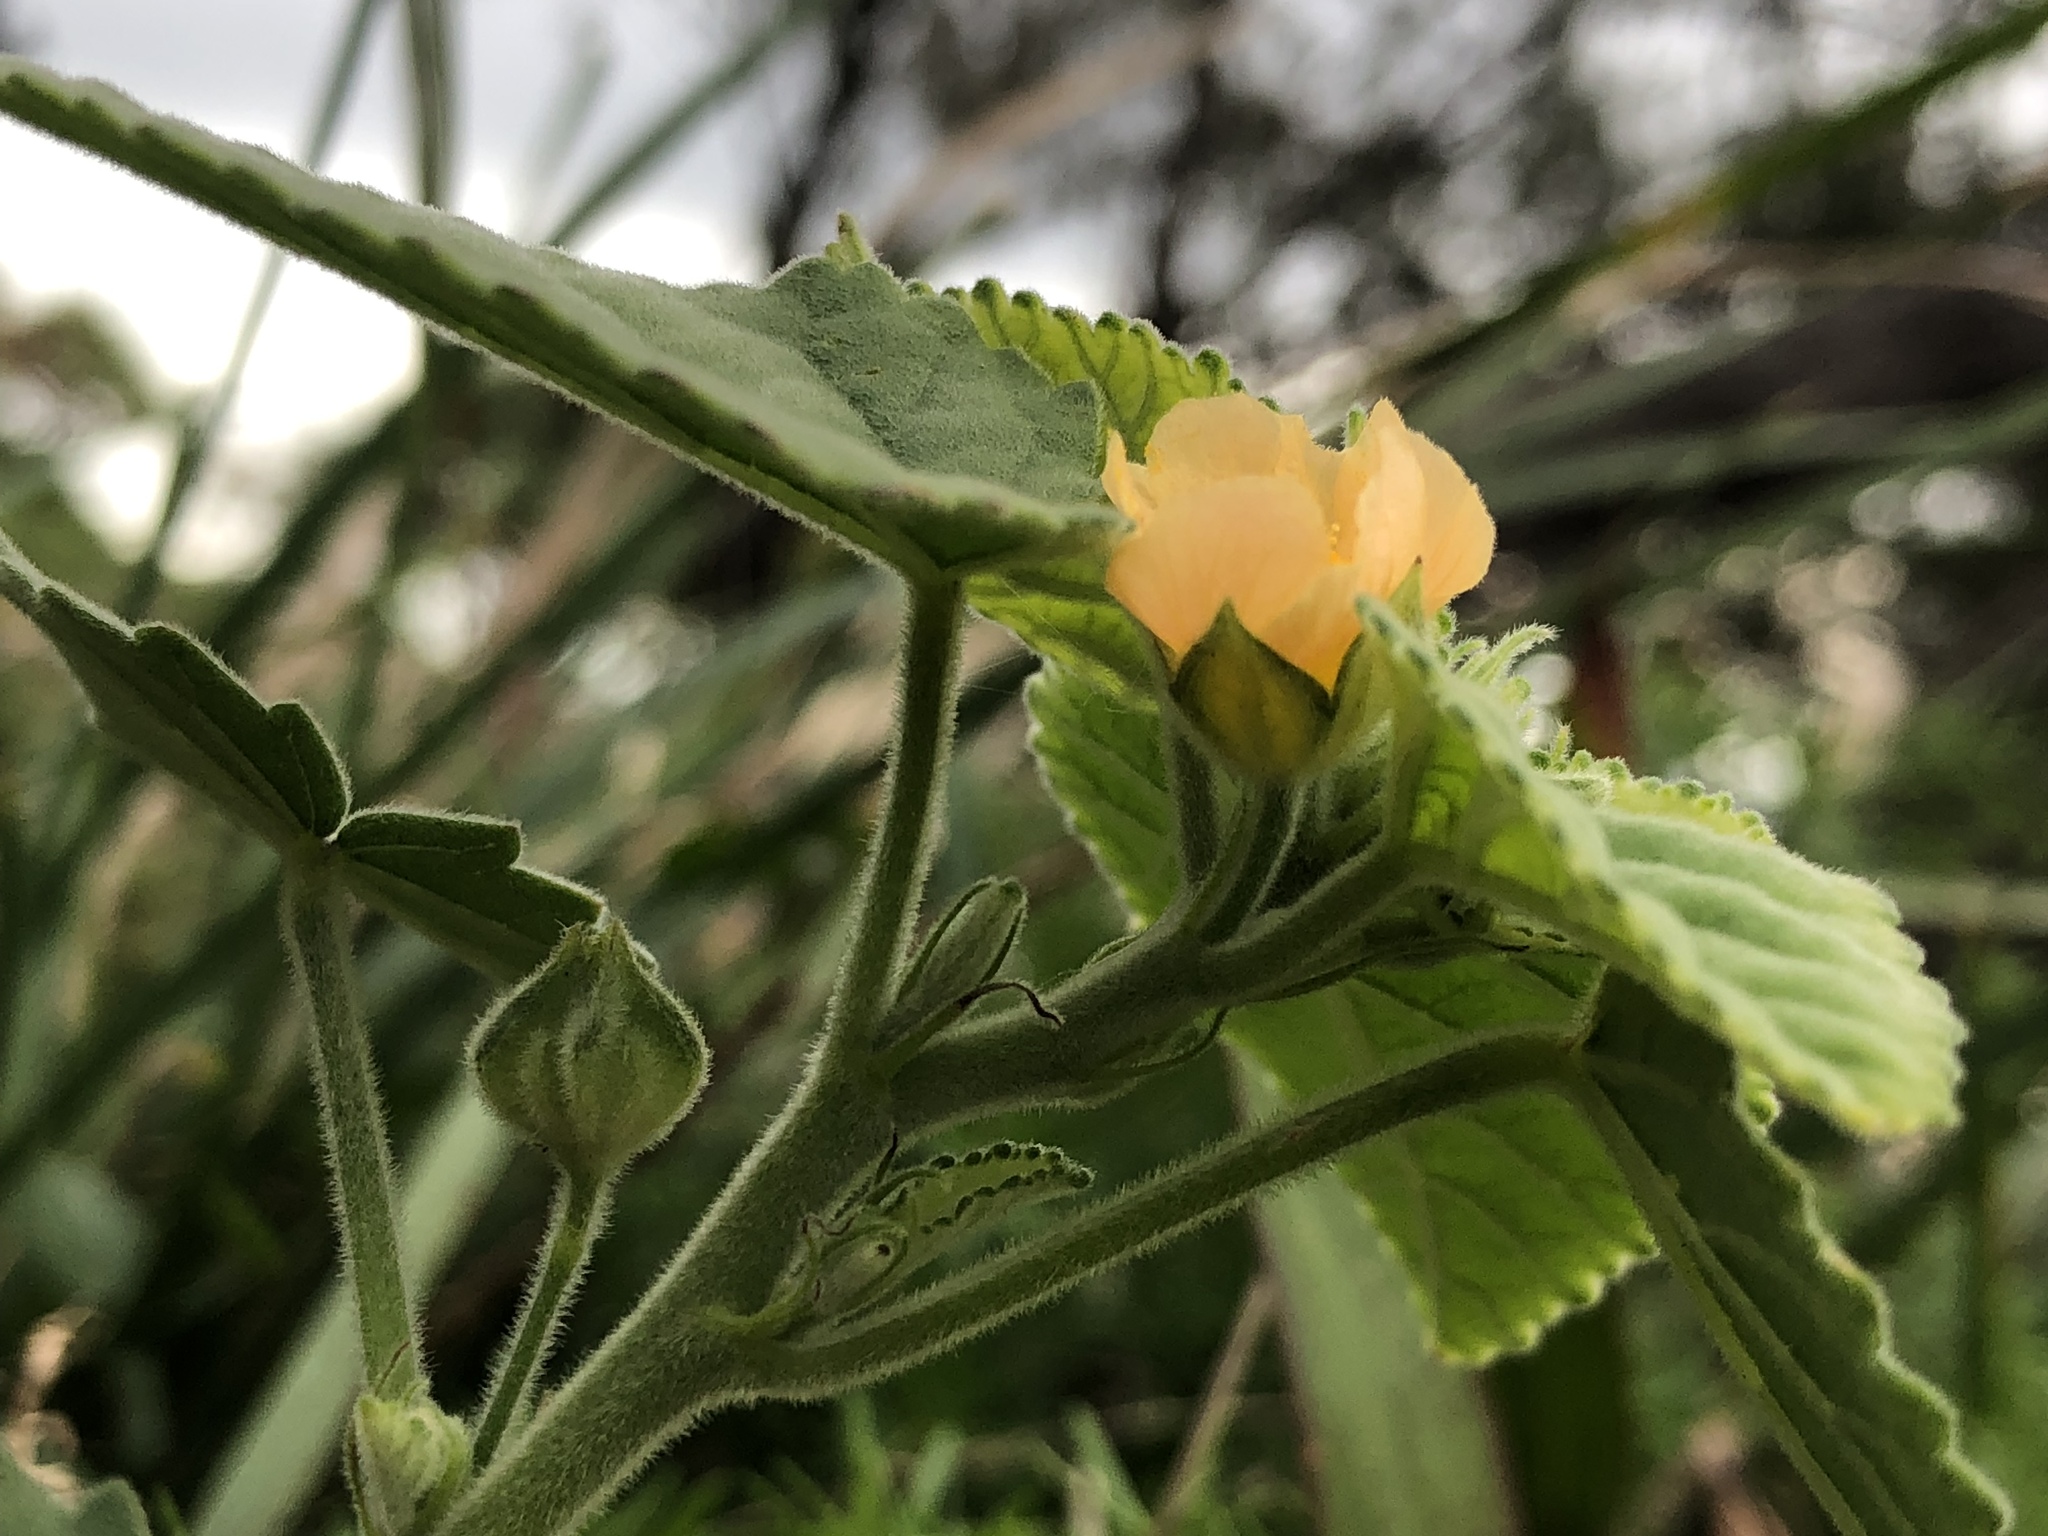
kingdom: Plantae
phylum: Tracheophyta
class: Magnoliopsida
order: Malvales
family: Malvaceae
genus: Sida
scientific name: Sida cordifolia
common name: Ilima
